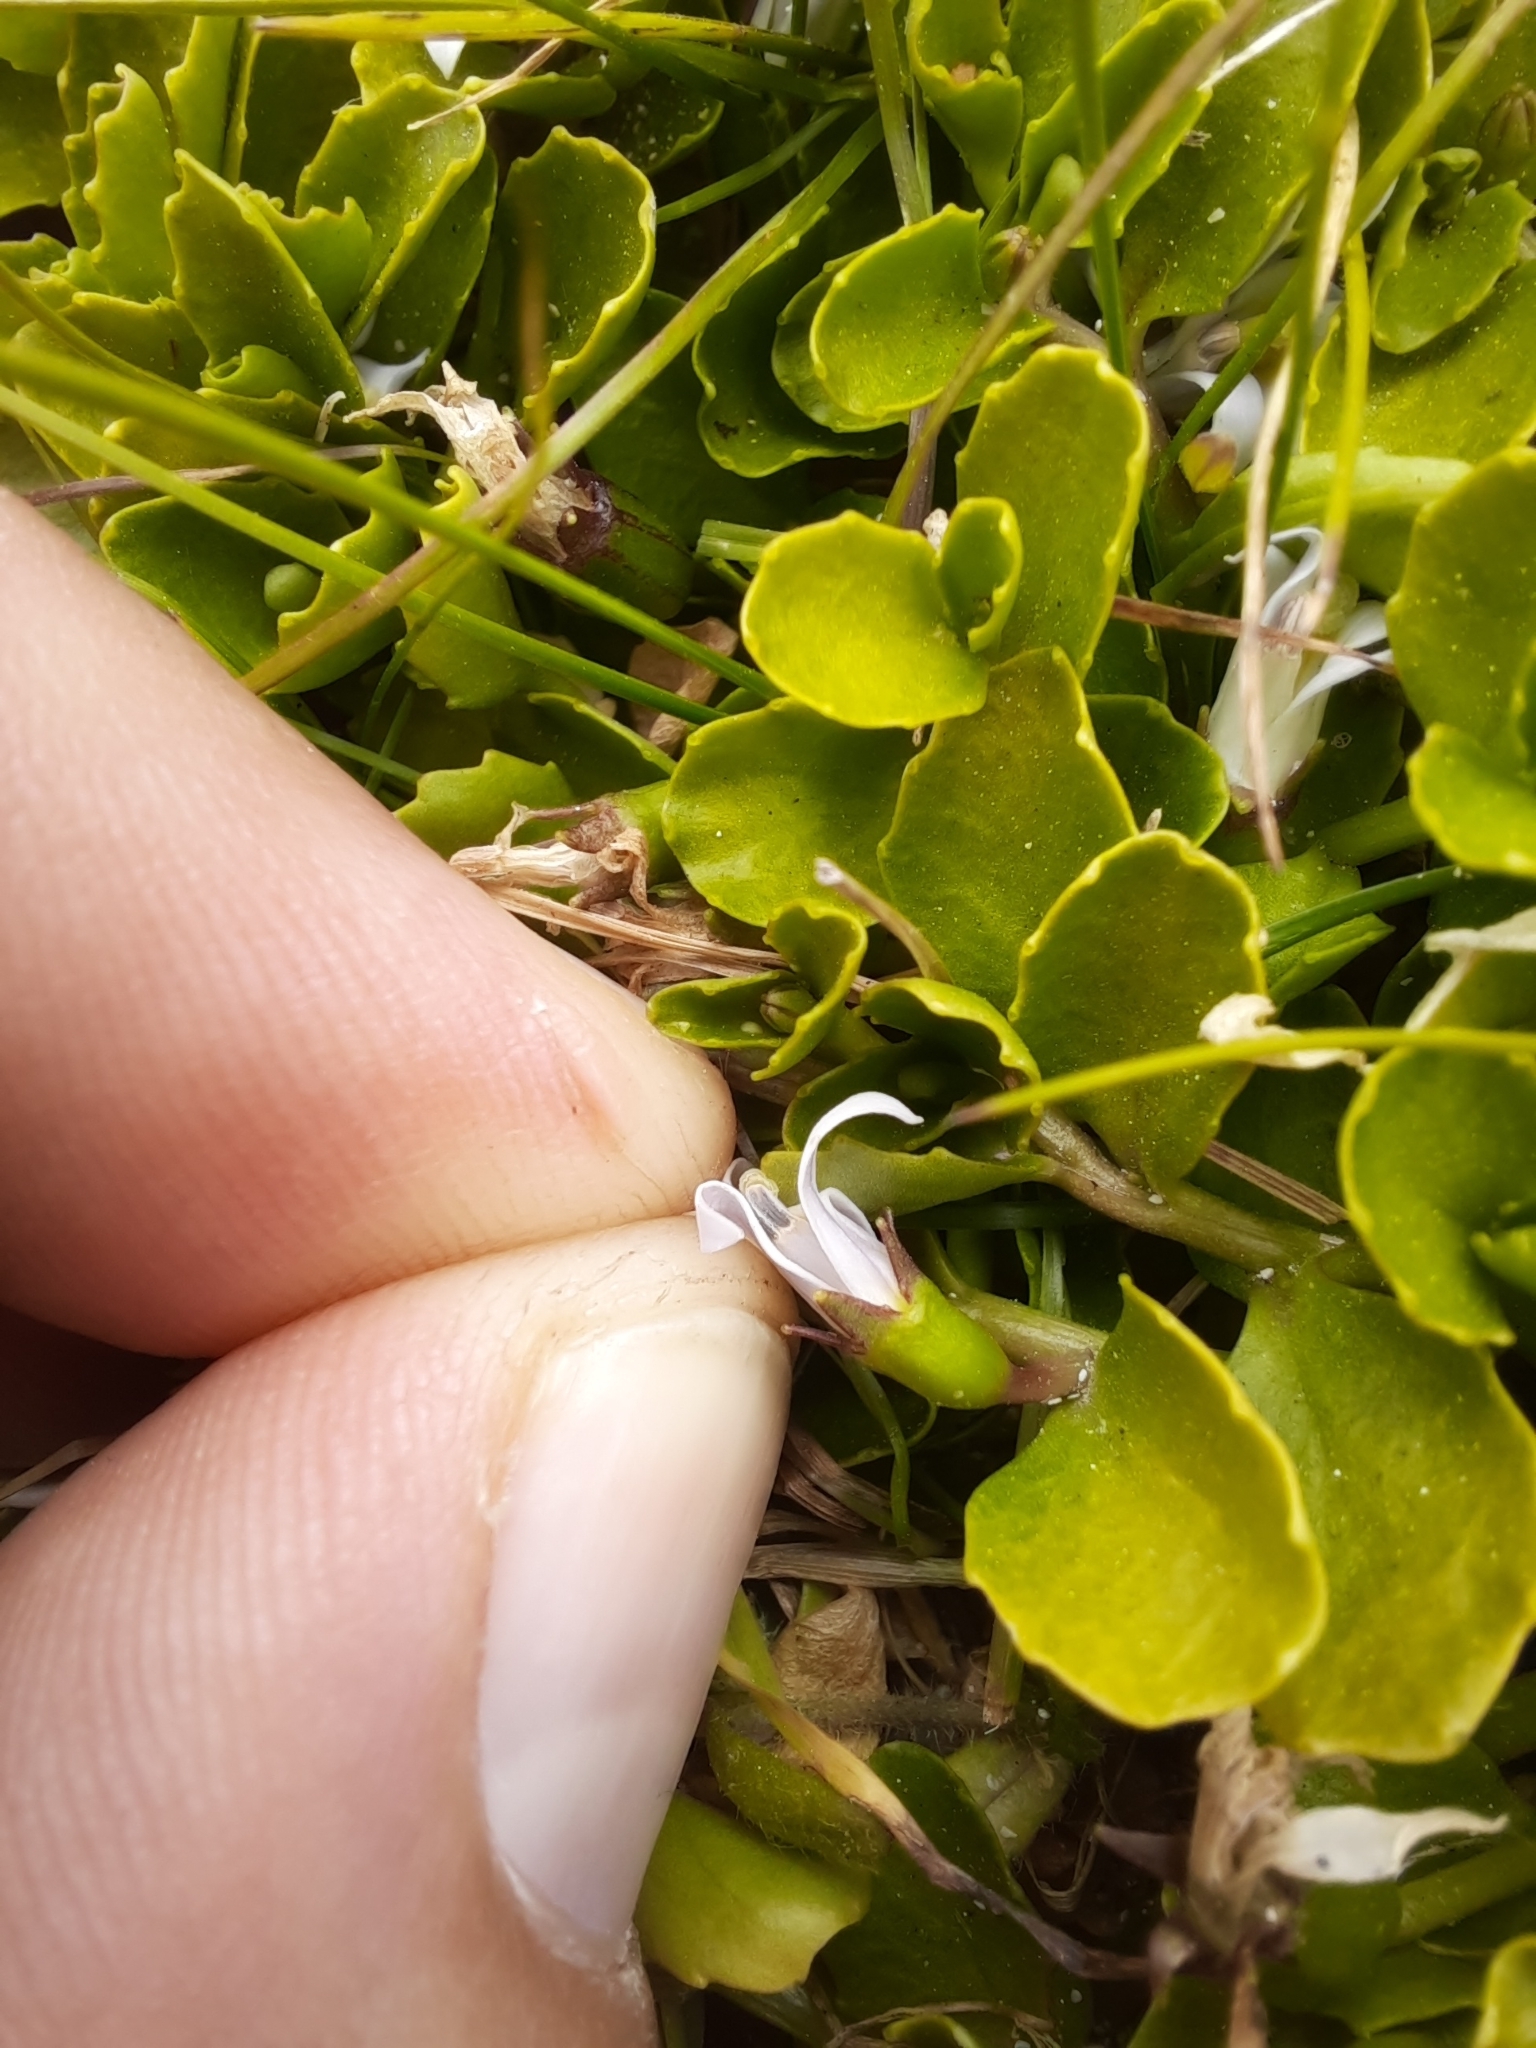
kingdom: Plantae
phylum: Tracheophyta
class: Magnoliopsida
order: Asterales
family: Campanulaceae
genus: Lobelia
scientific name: Lobelia arenaria
